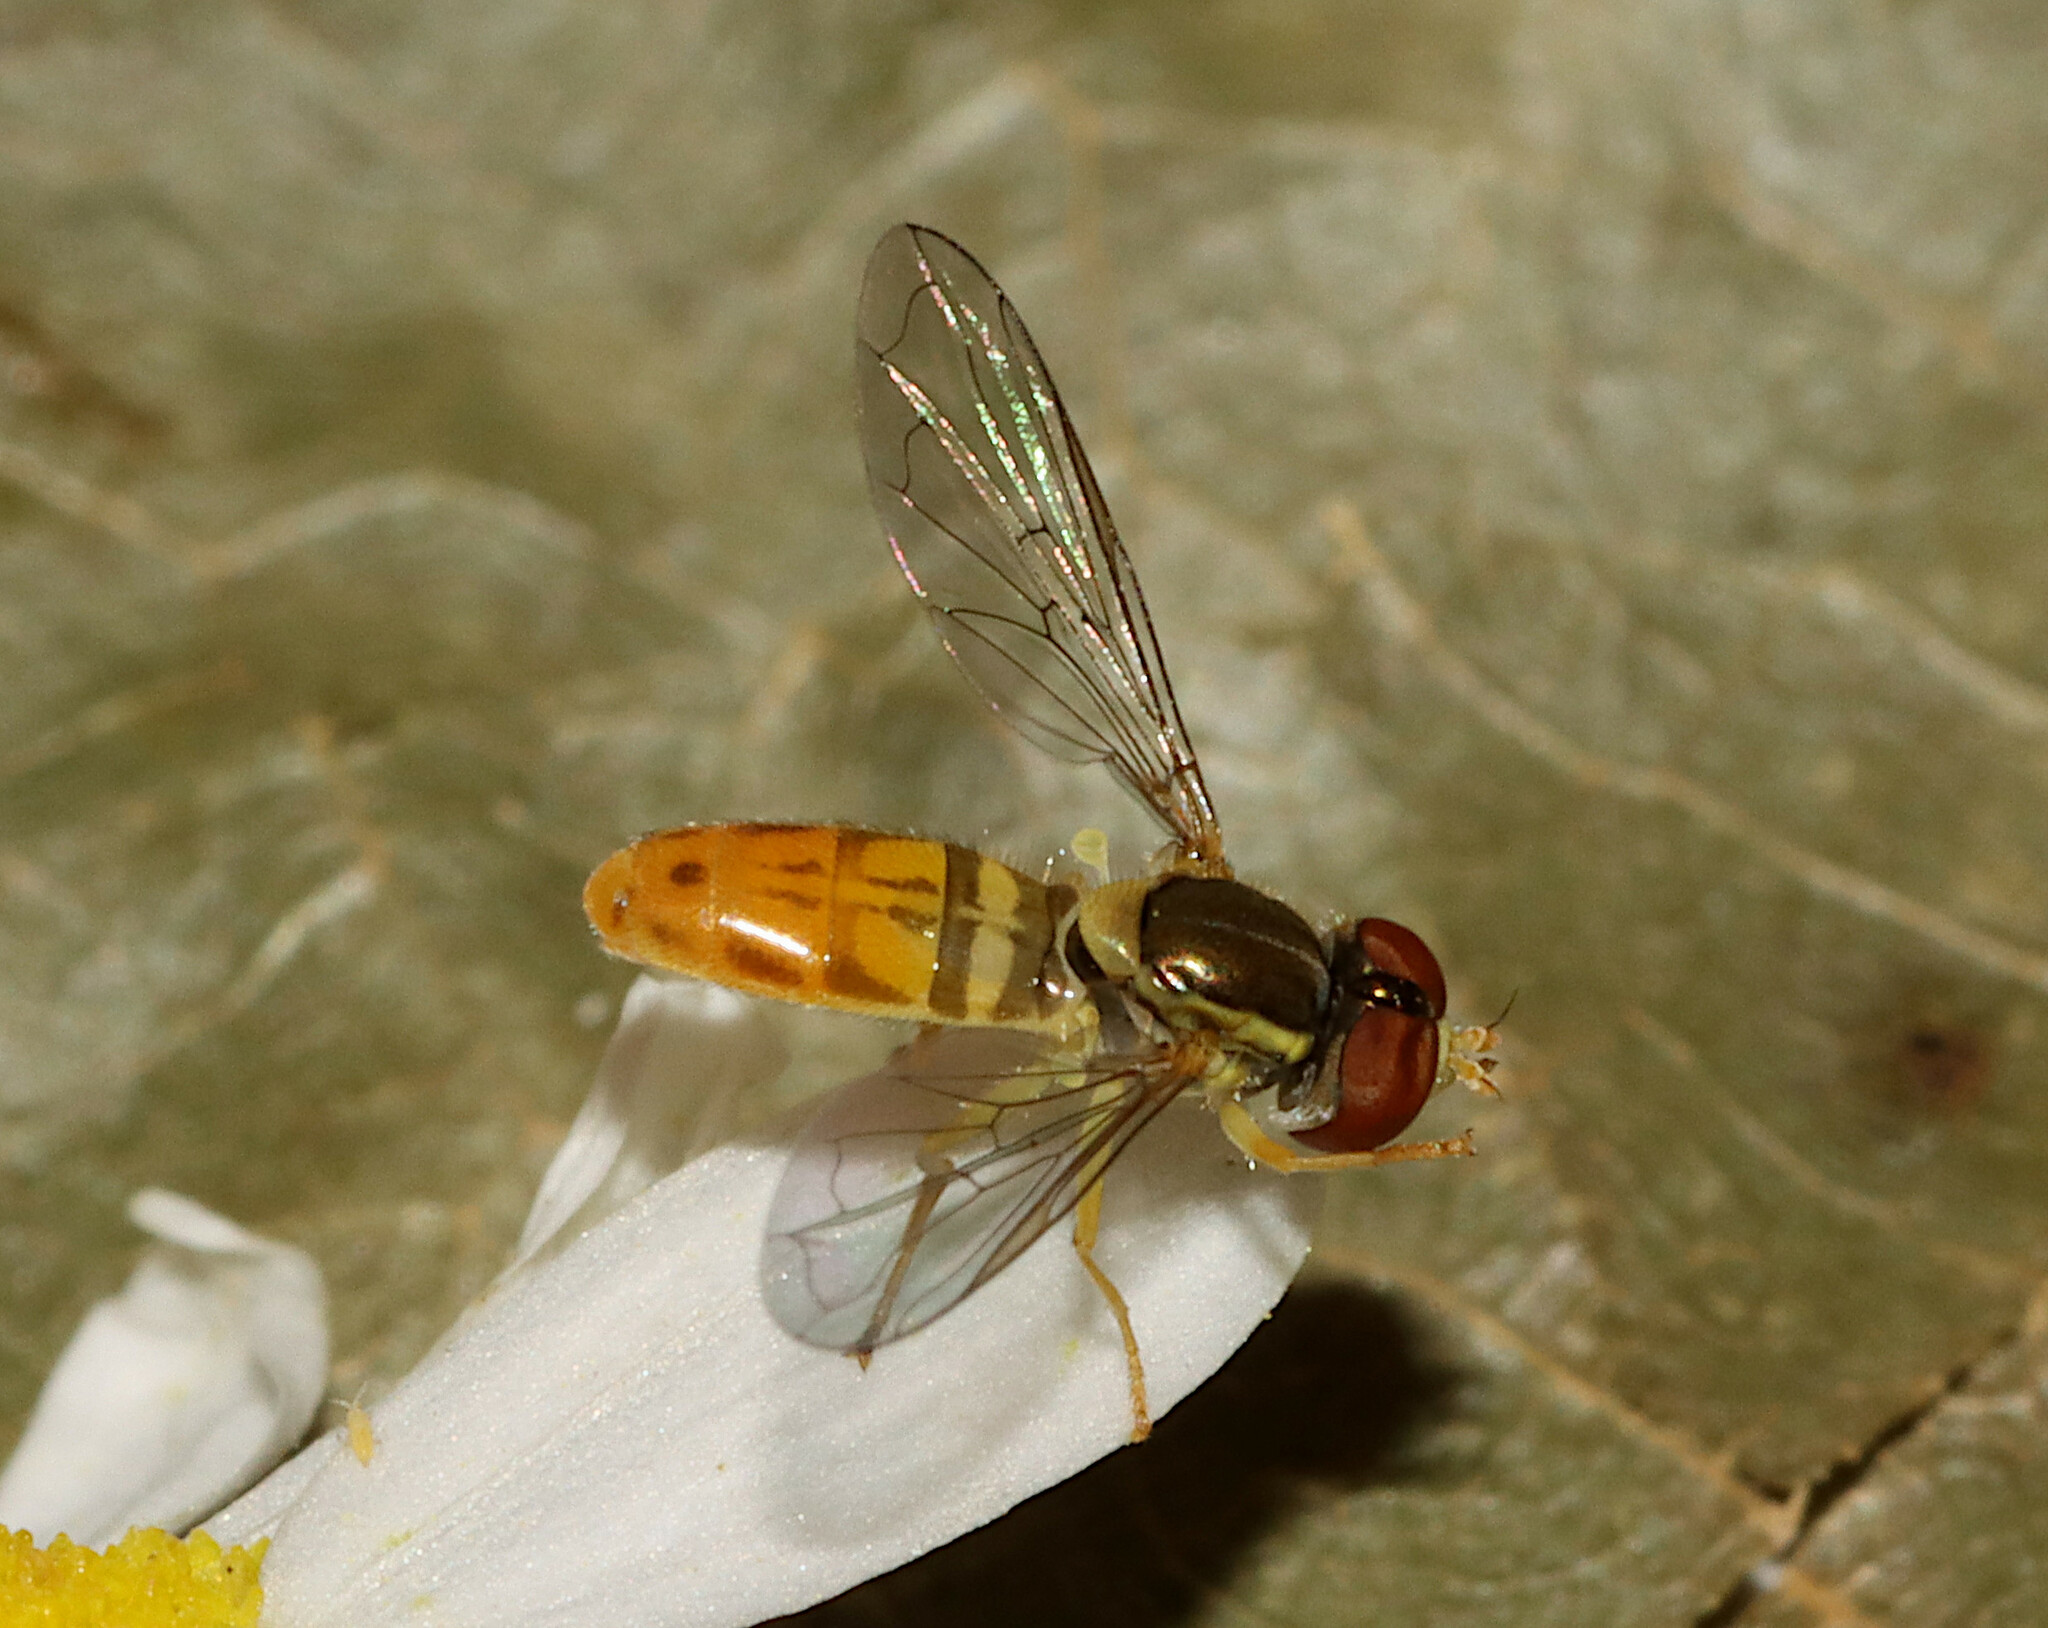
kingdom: Animalia
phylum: Arthropoda
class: Insecta
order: Diptera
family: Syrphidae
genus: Toxomerus
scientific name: Toxomerus marginatus
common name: Syrphid fly
